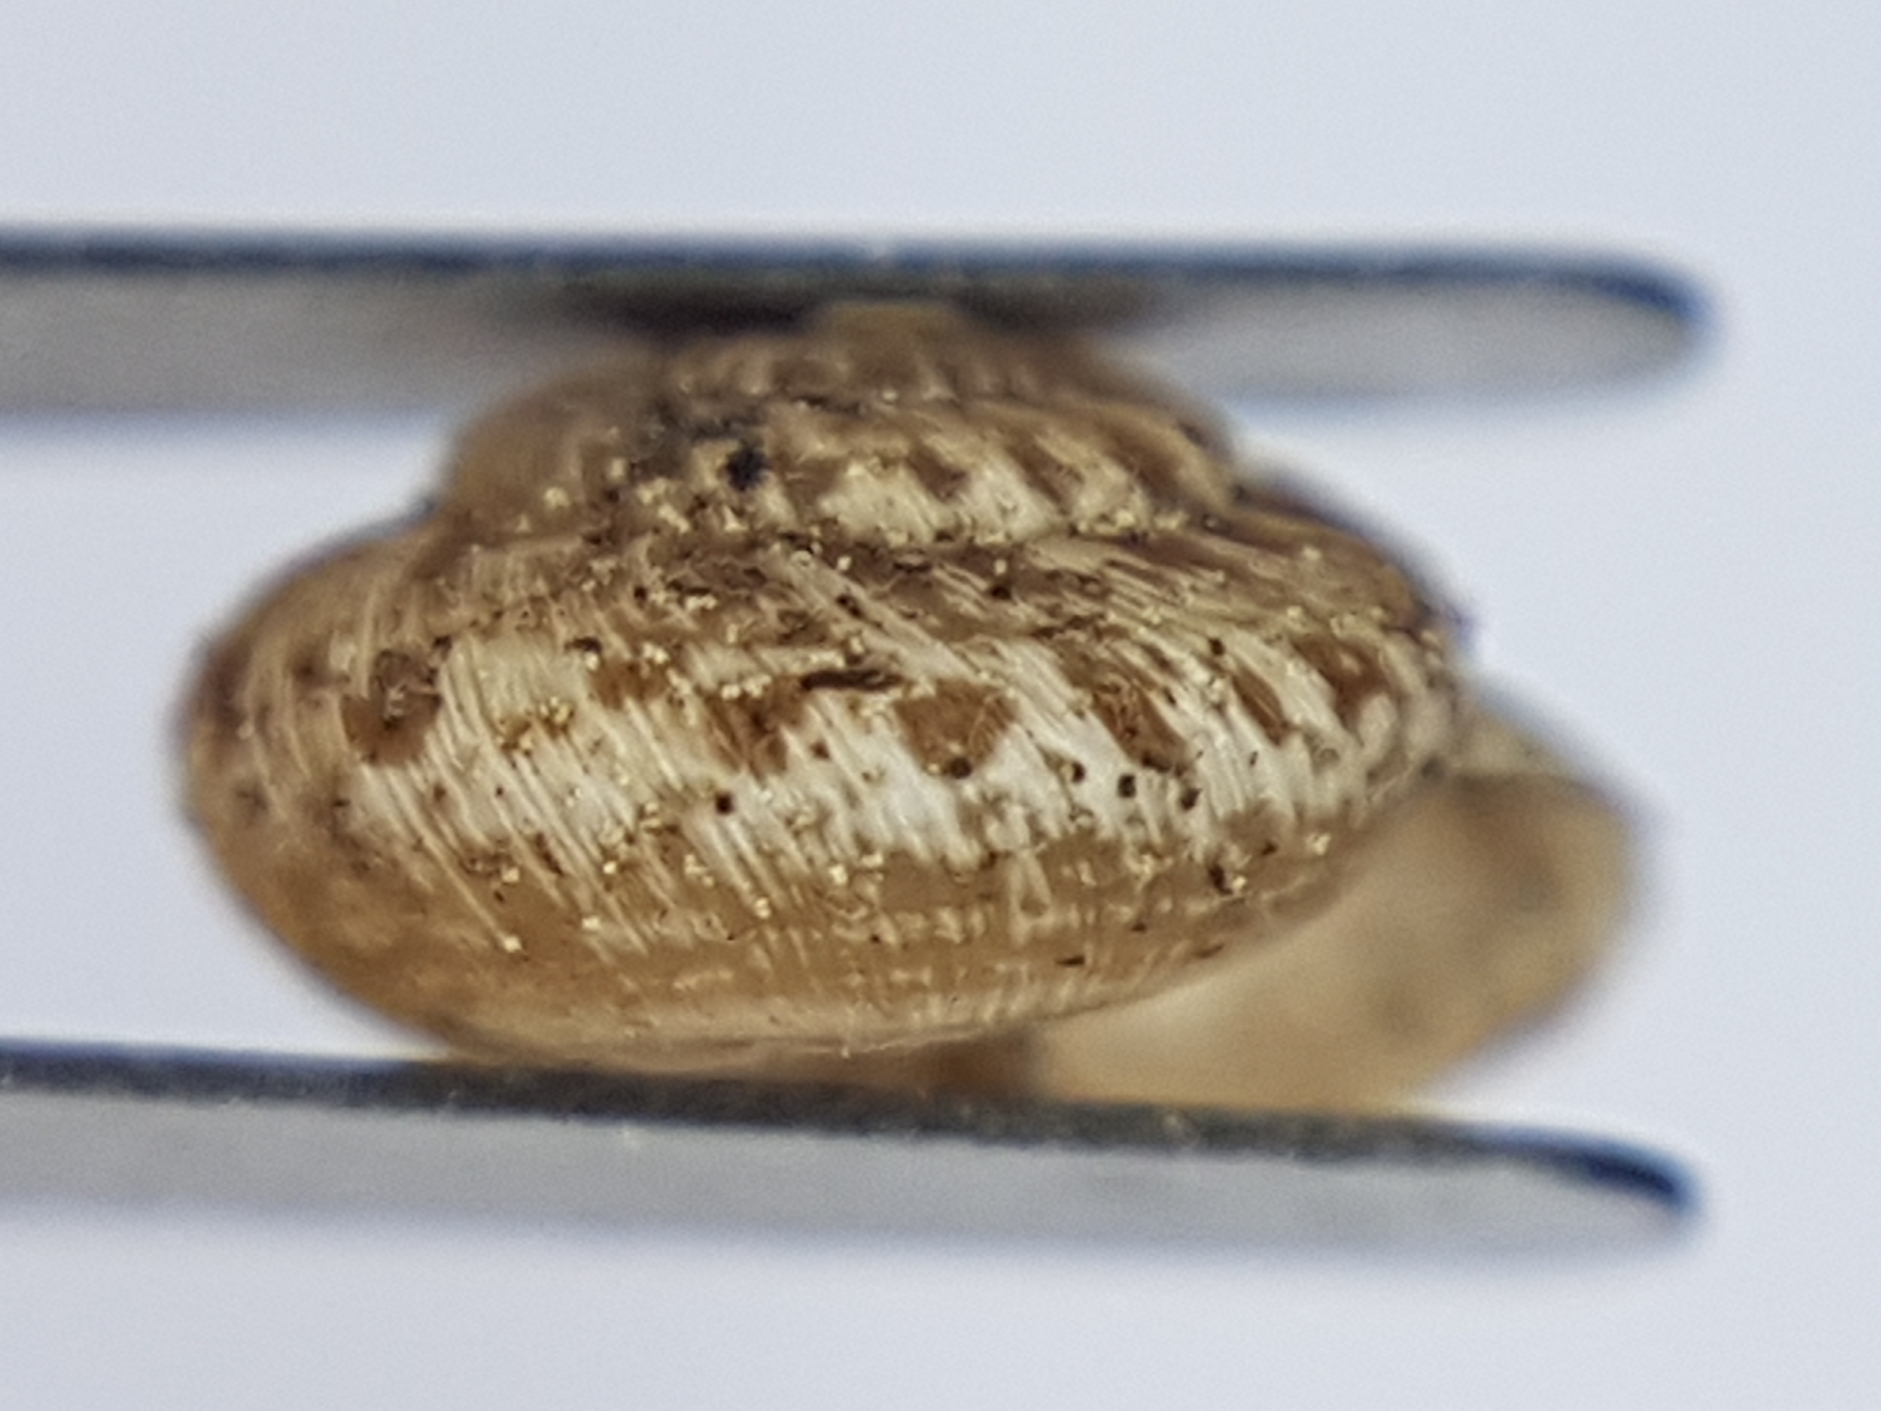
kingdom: Animalia
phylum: Mollusca
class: Gastropoda
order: Stylommatophora
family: Geomitridae
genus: Xerotricha
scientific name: Xerotricha conspurcata
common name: Snail
